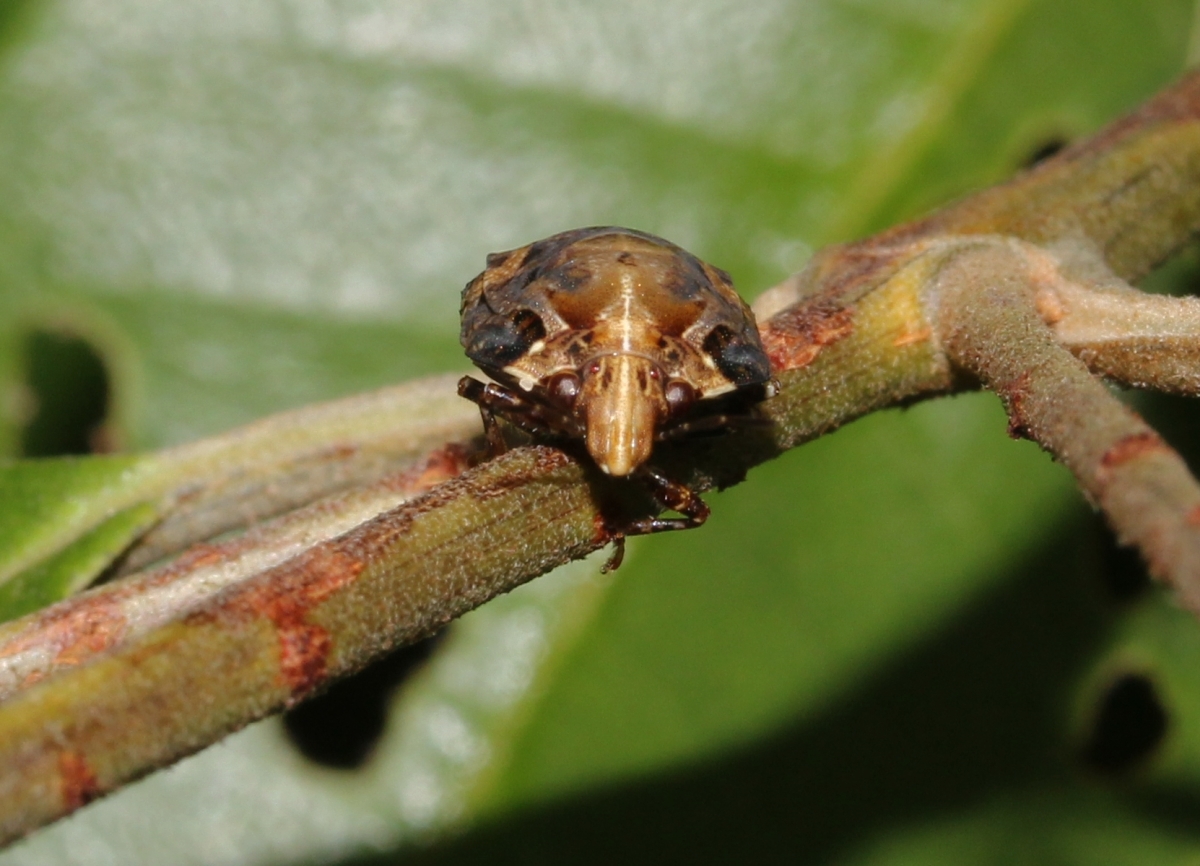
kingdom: Animalia
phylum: Arthropoda
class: Insecta
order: Hemiptera
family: Scutelleridae
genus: Lobothyreus
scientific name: Lobothyreus
